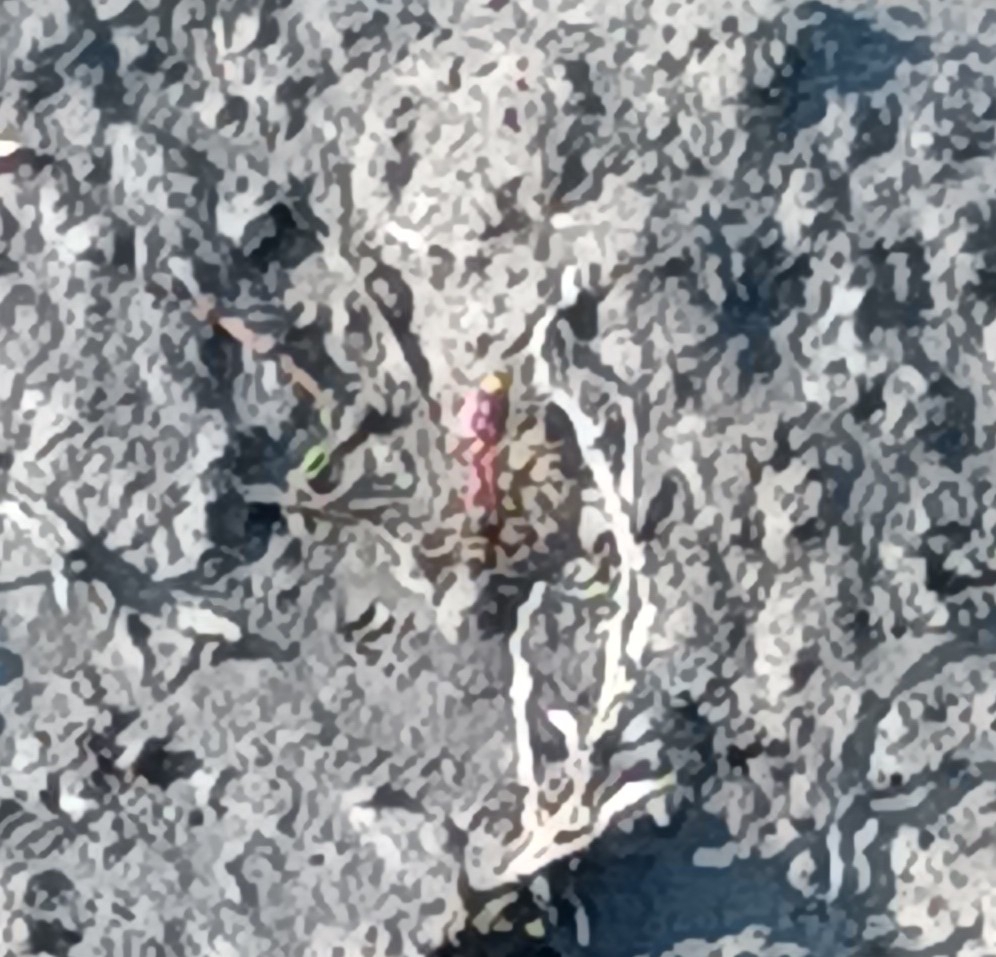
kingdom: Animalia
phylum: Arthropoda
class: Insecta
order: Hymenoptera
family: Sphecidae
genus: Sceliphron
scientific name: Sceliphron caementarium
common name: Mud dauber
